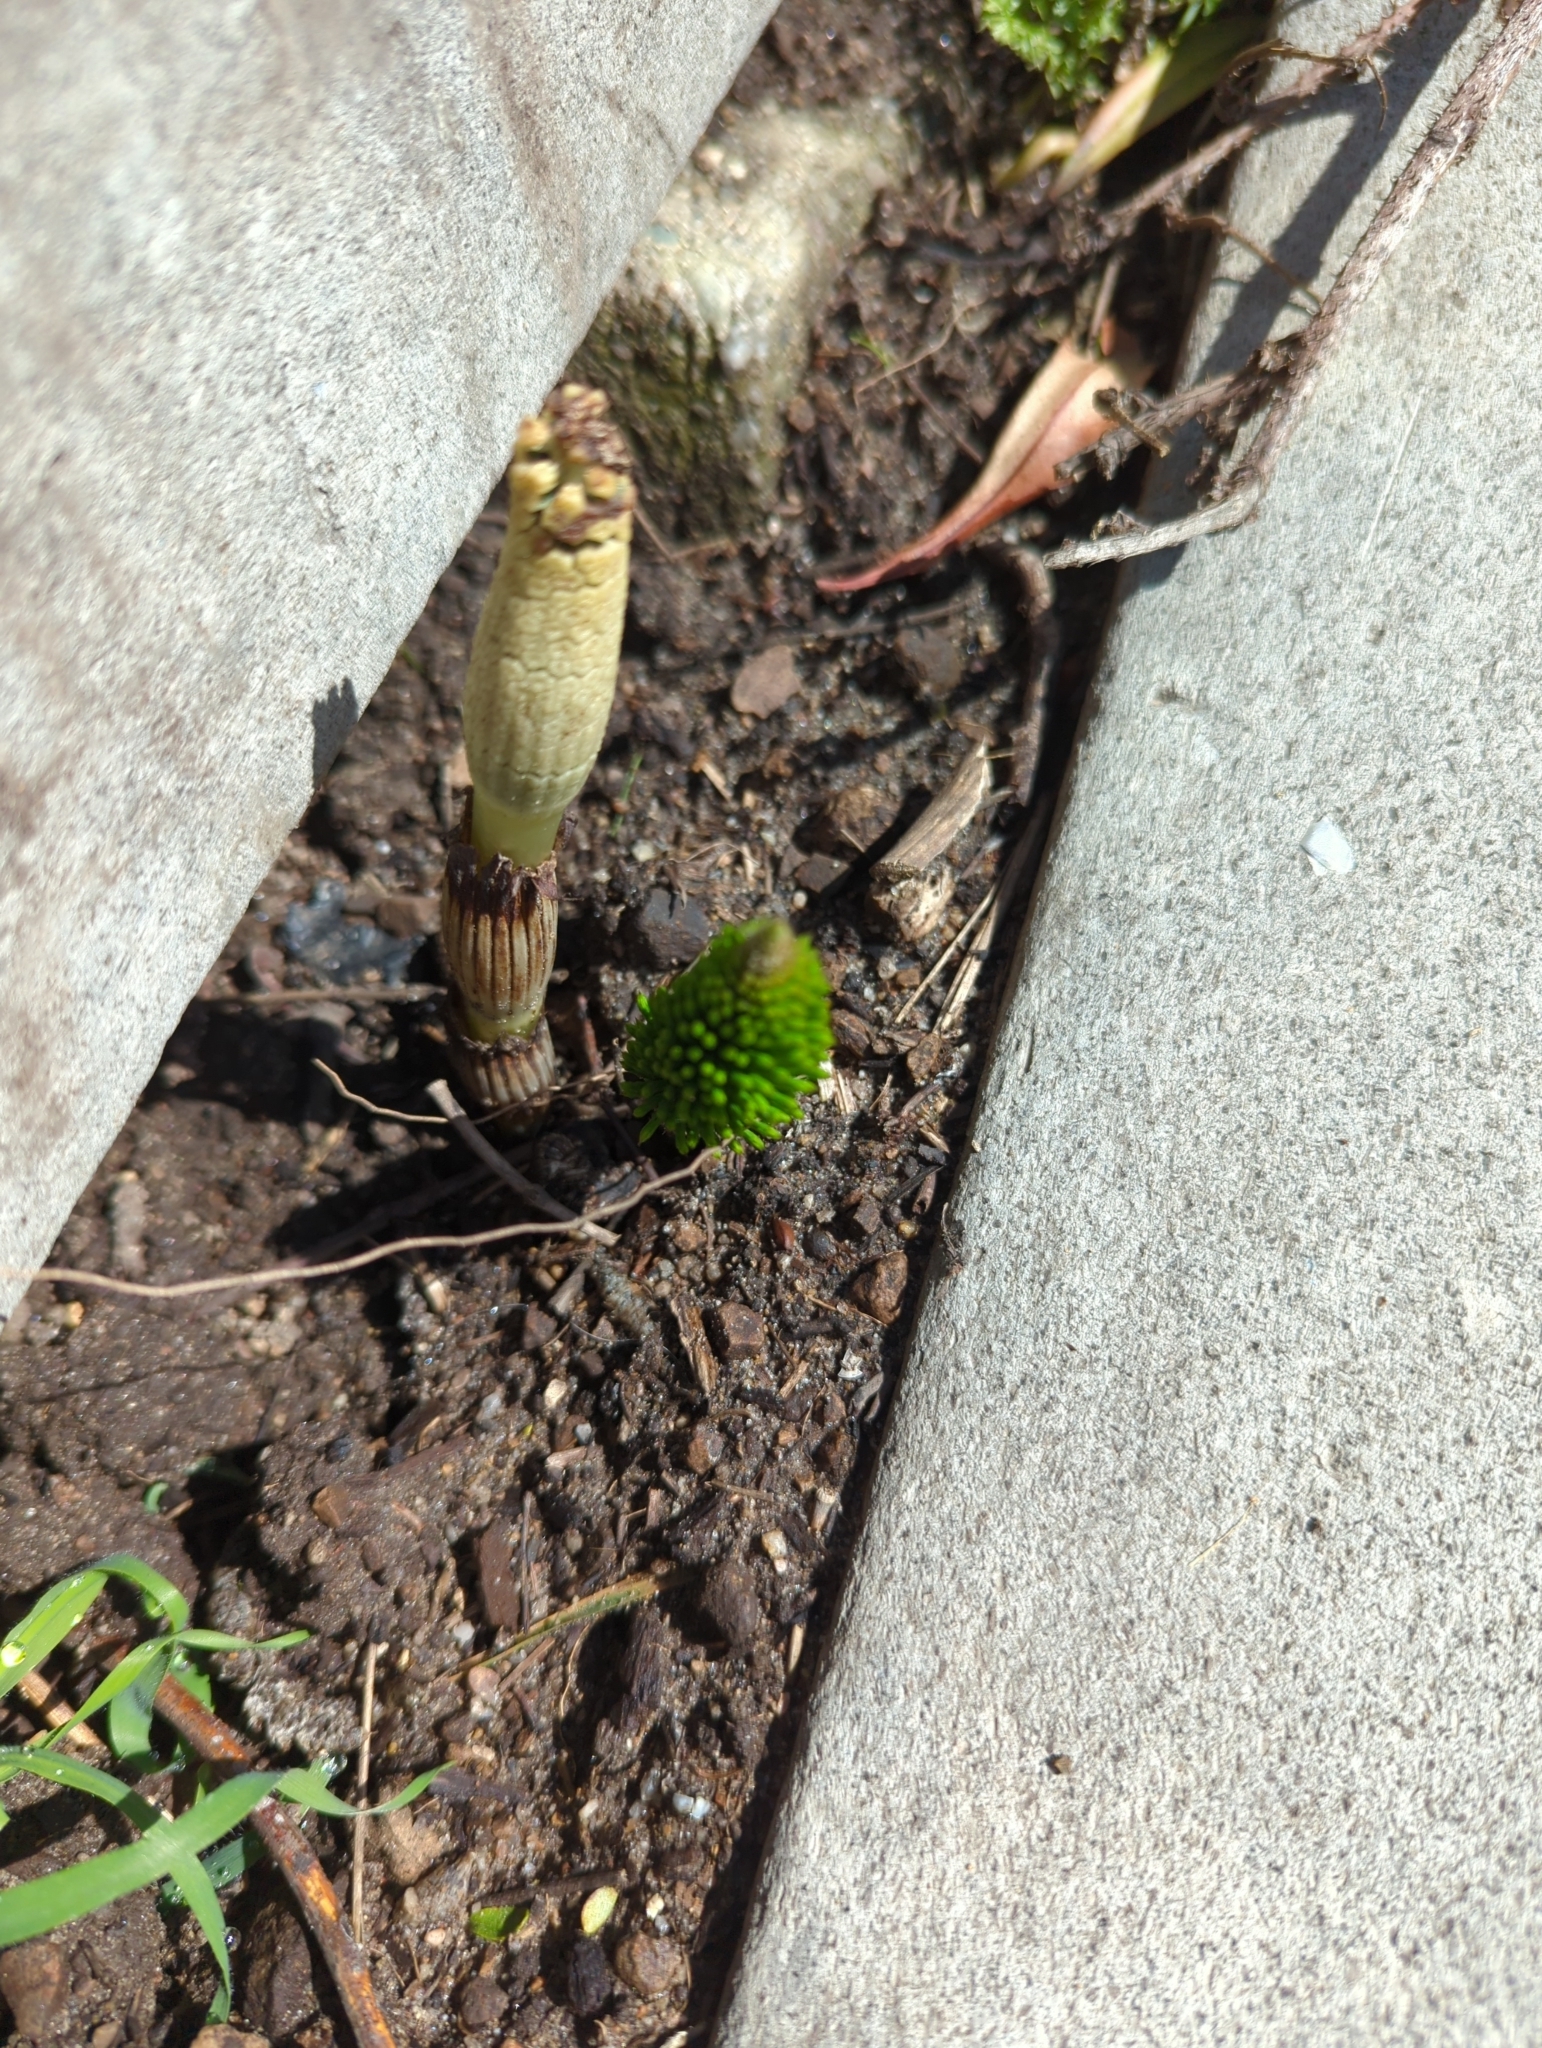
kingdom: Plantae
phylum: Tracheophyta
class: Polypodiopsida
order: Equisetales
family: Equisetaceae
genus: Equisetum
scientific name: Equisetum telmateia
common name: Great horsetail
